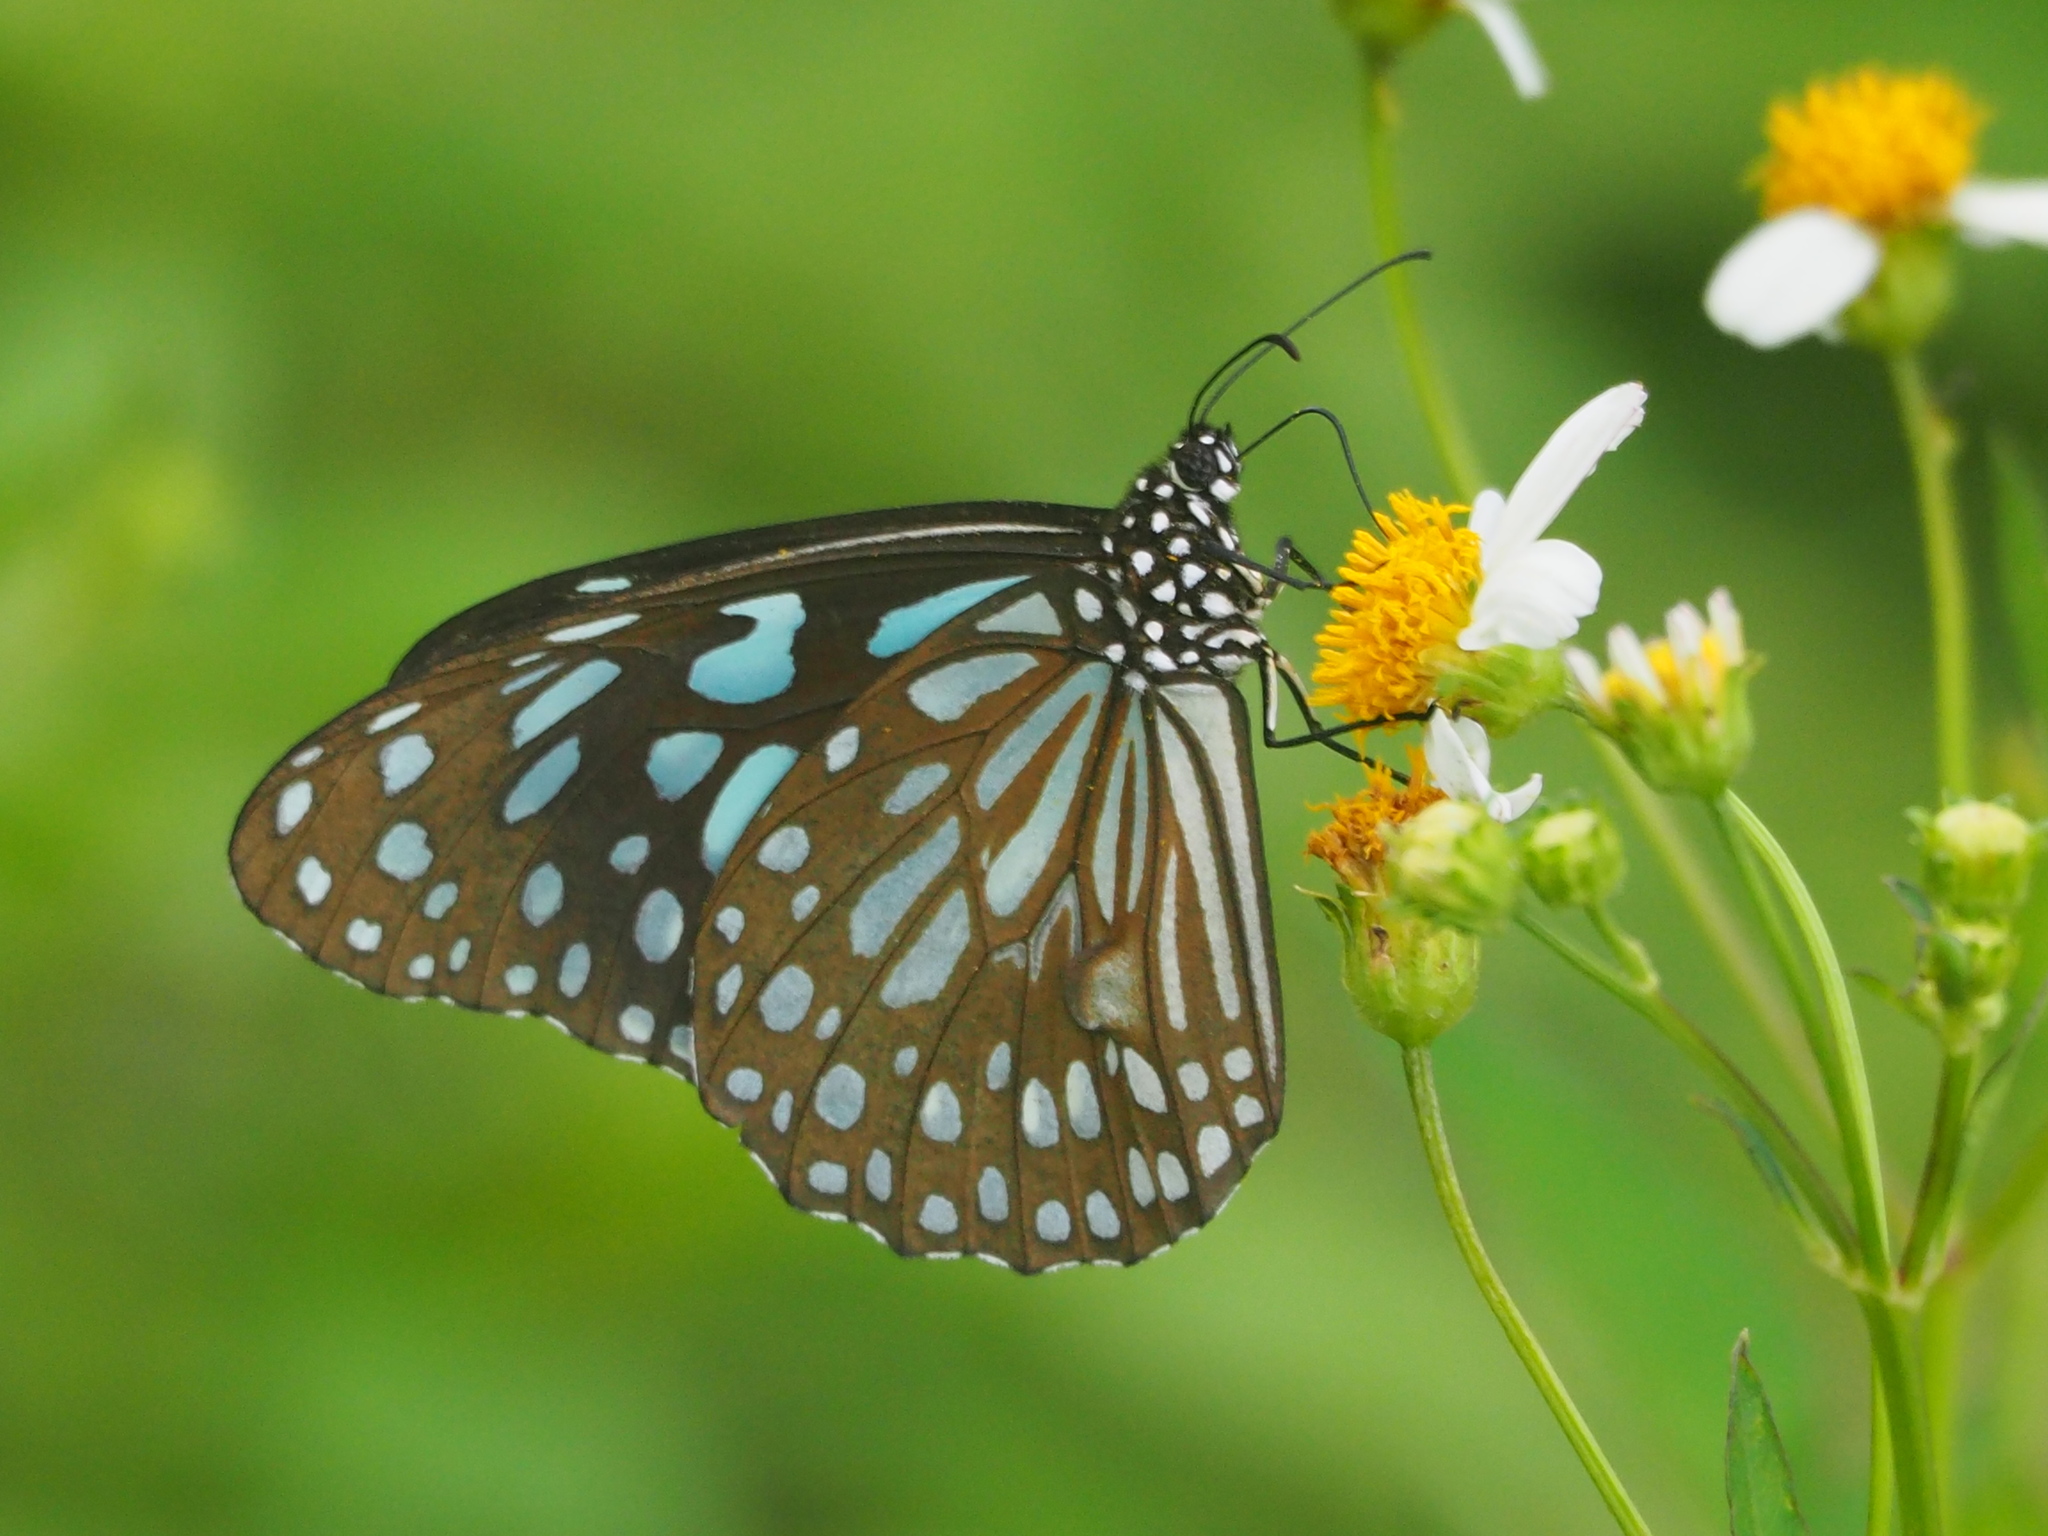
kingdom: Animalia
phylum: Arthropoda
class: Insecta
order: Lepidoptera
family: Nymphalidae
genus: Tirumala
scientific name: Tirumala limniace
